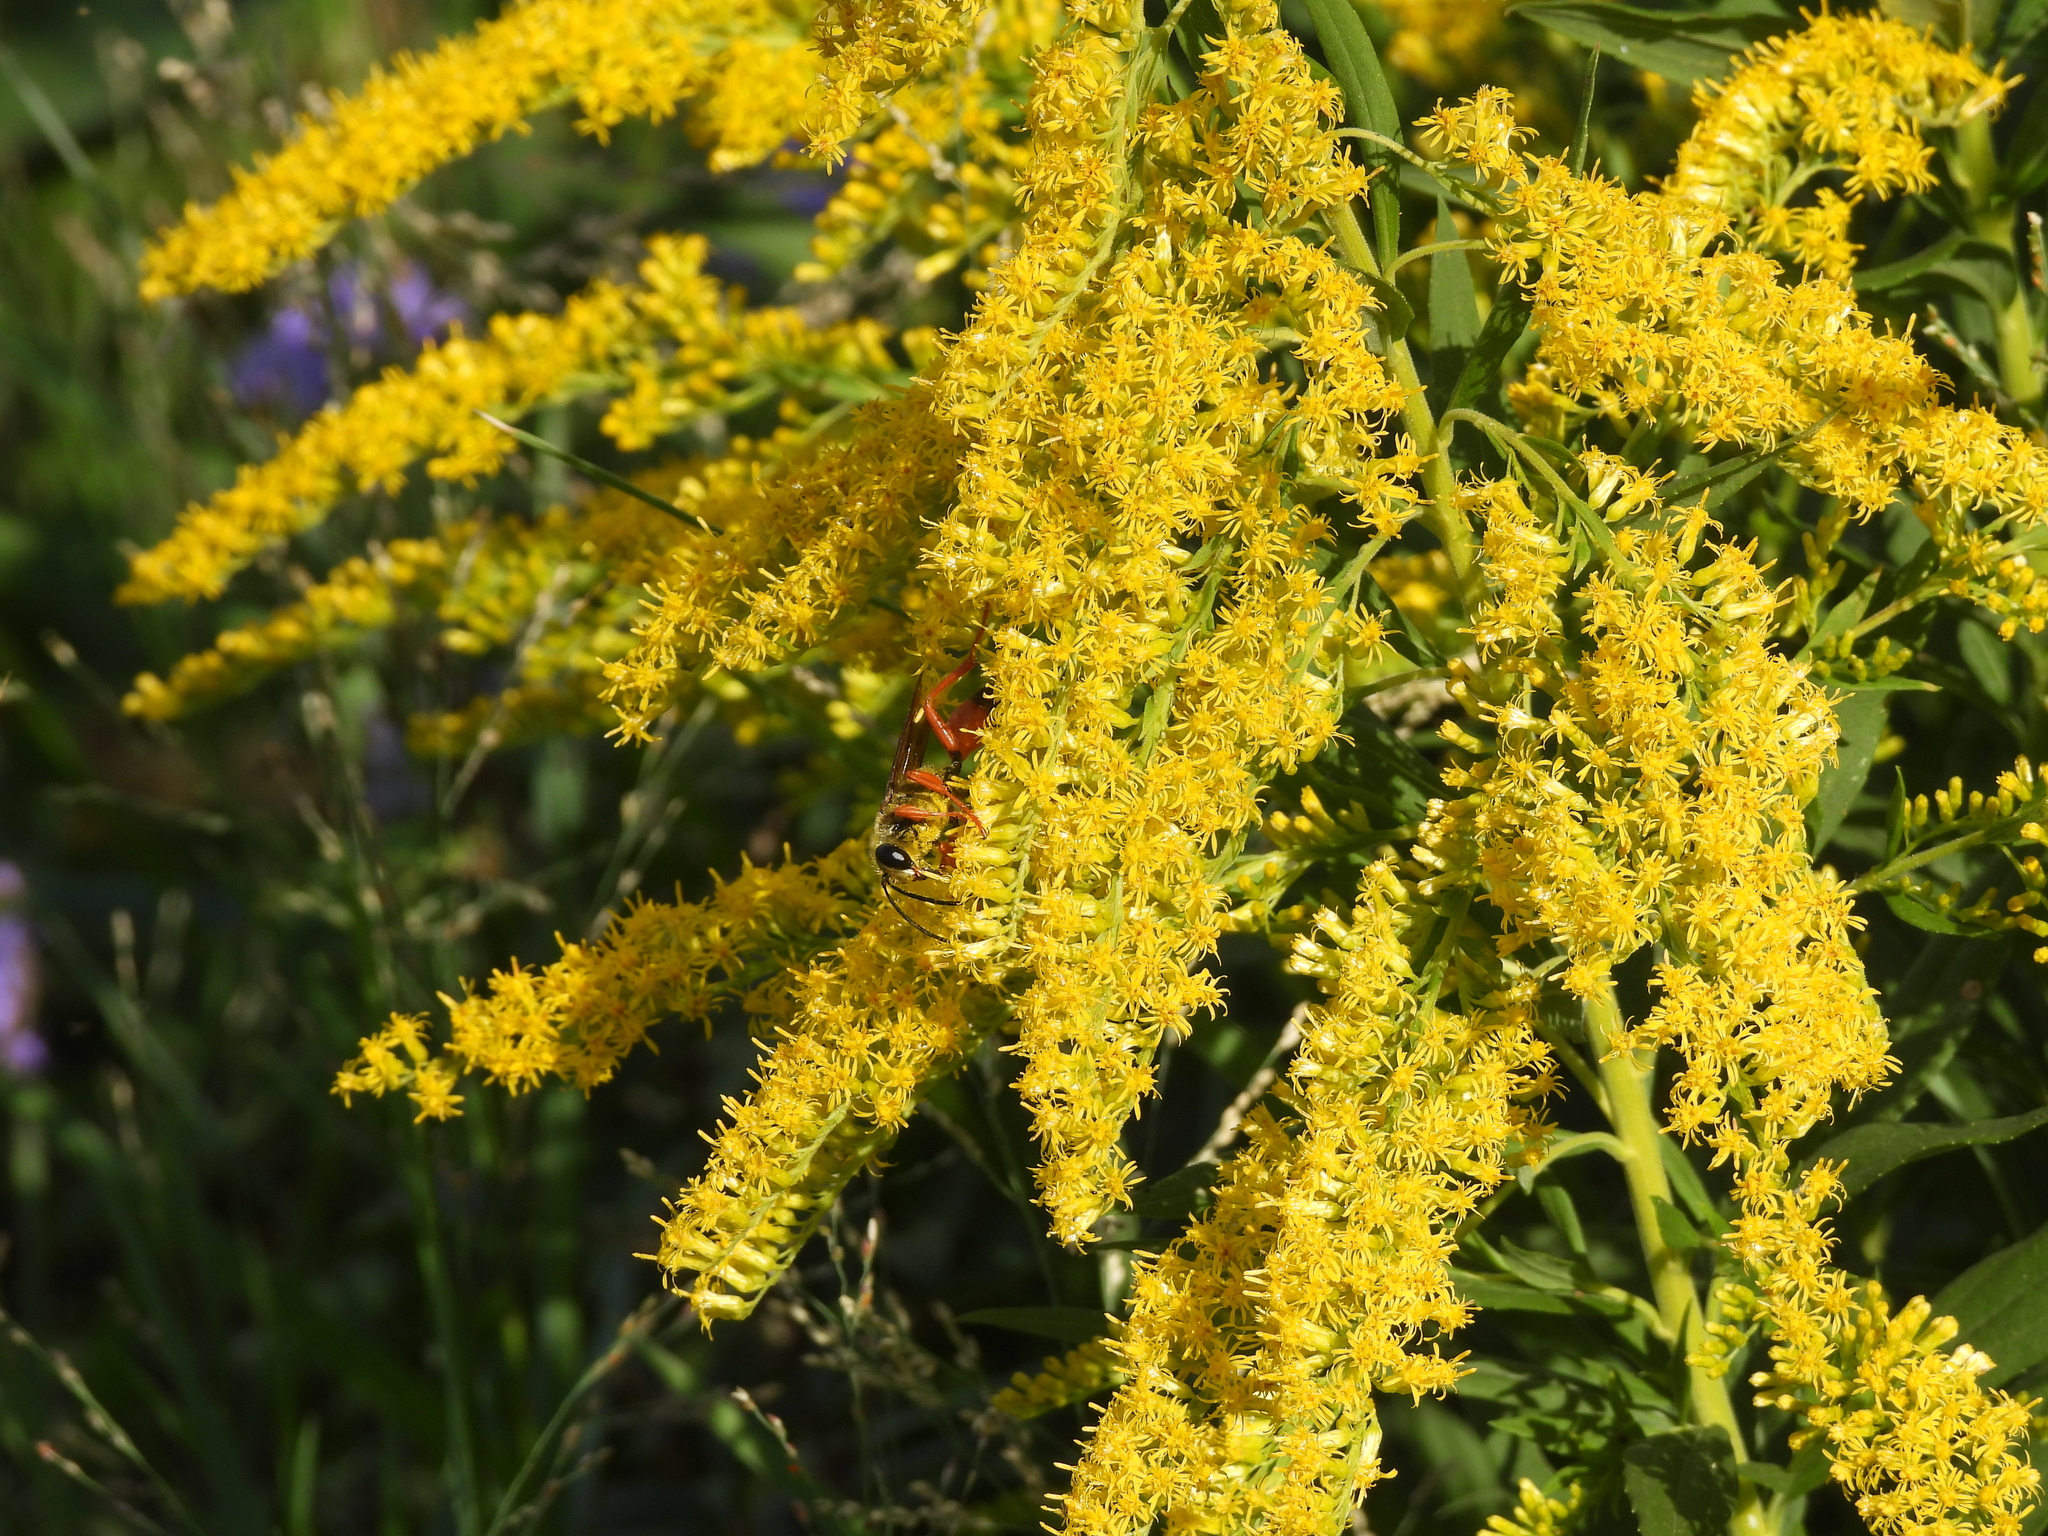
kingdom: Animalia
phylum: Arthropoda
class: Insecta
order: Hymenoptera
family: Sphecidae
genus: Sphex
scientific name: Sphex ichneumoneus
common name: Great golden digger wasp
